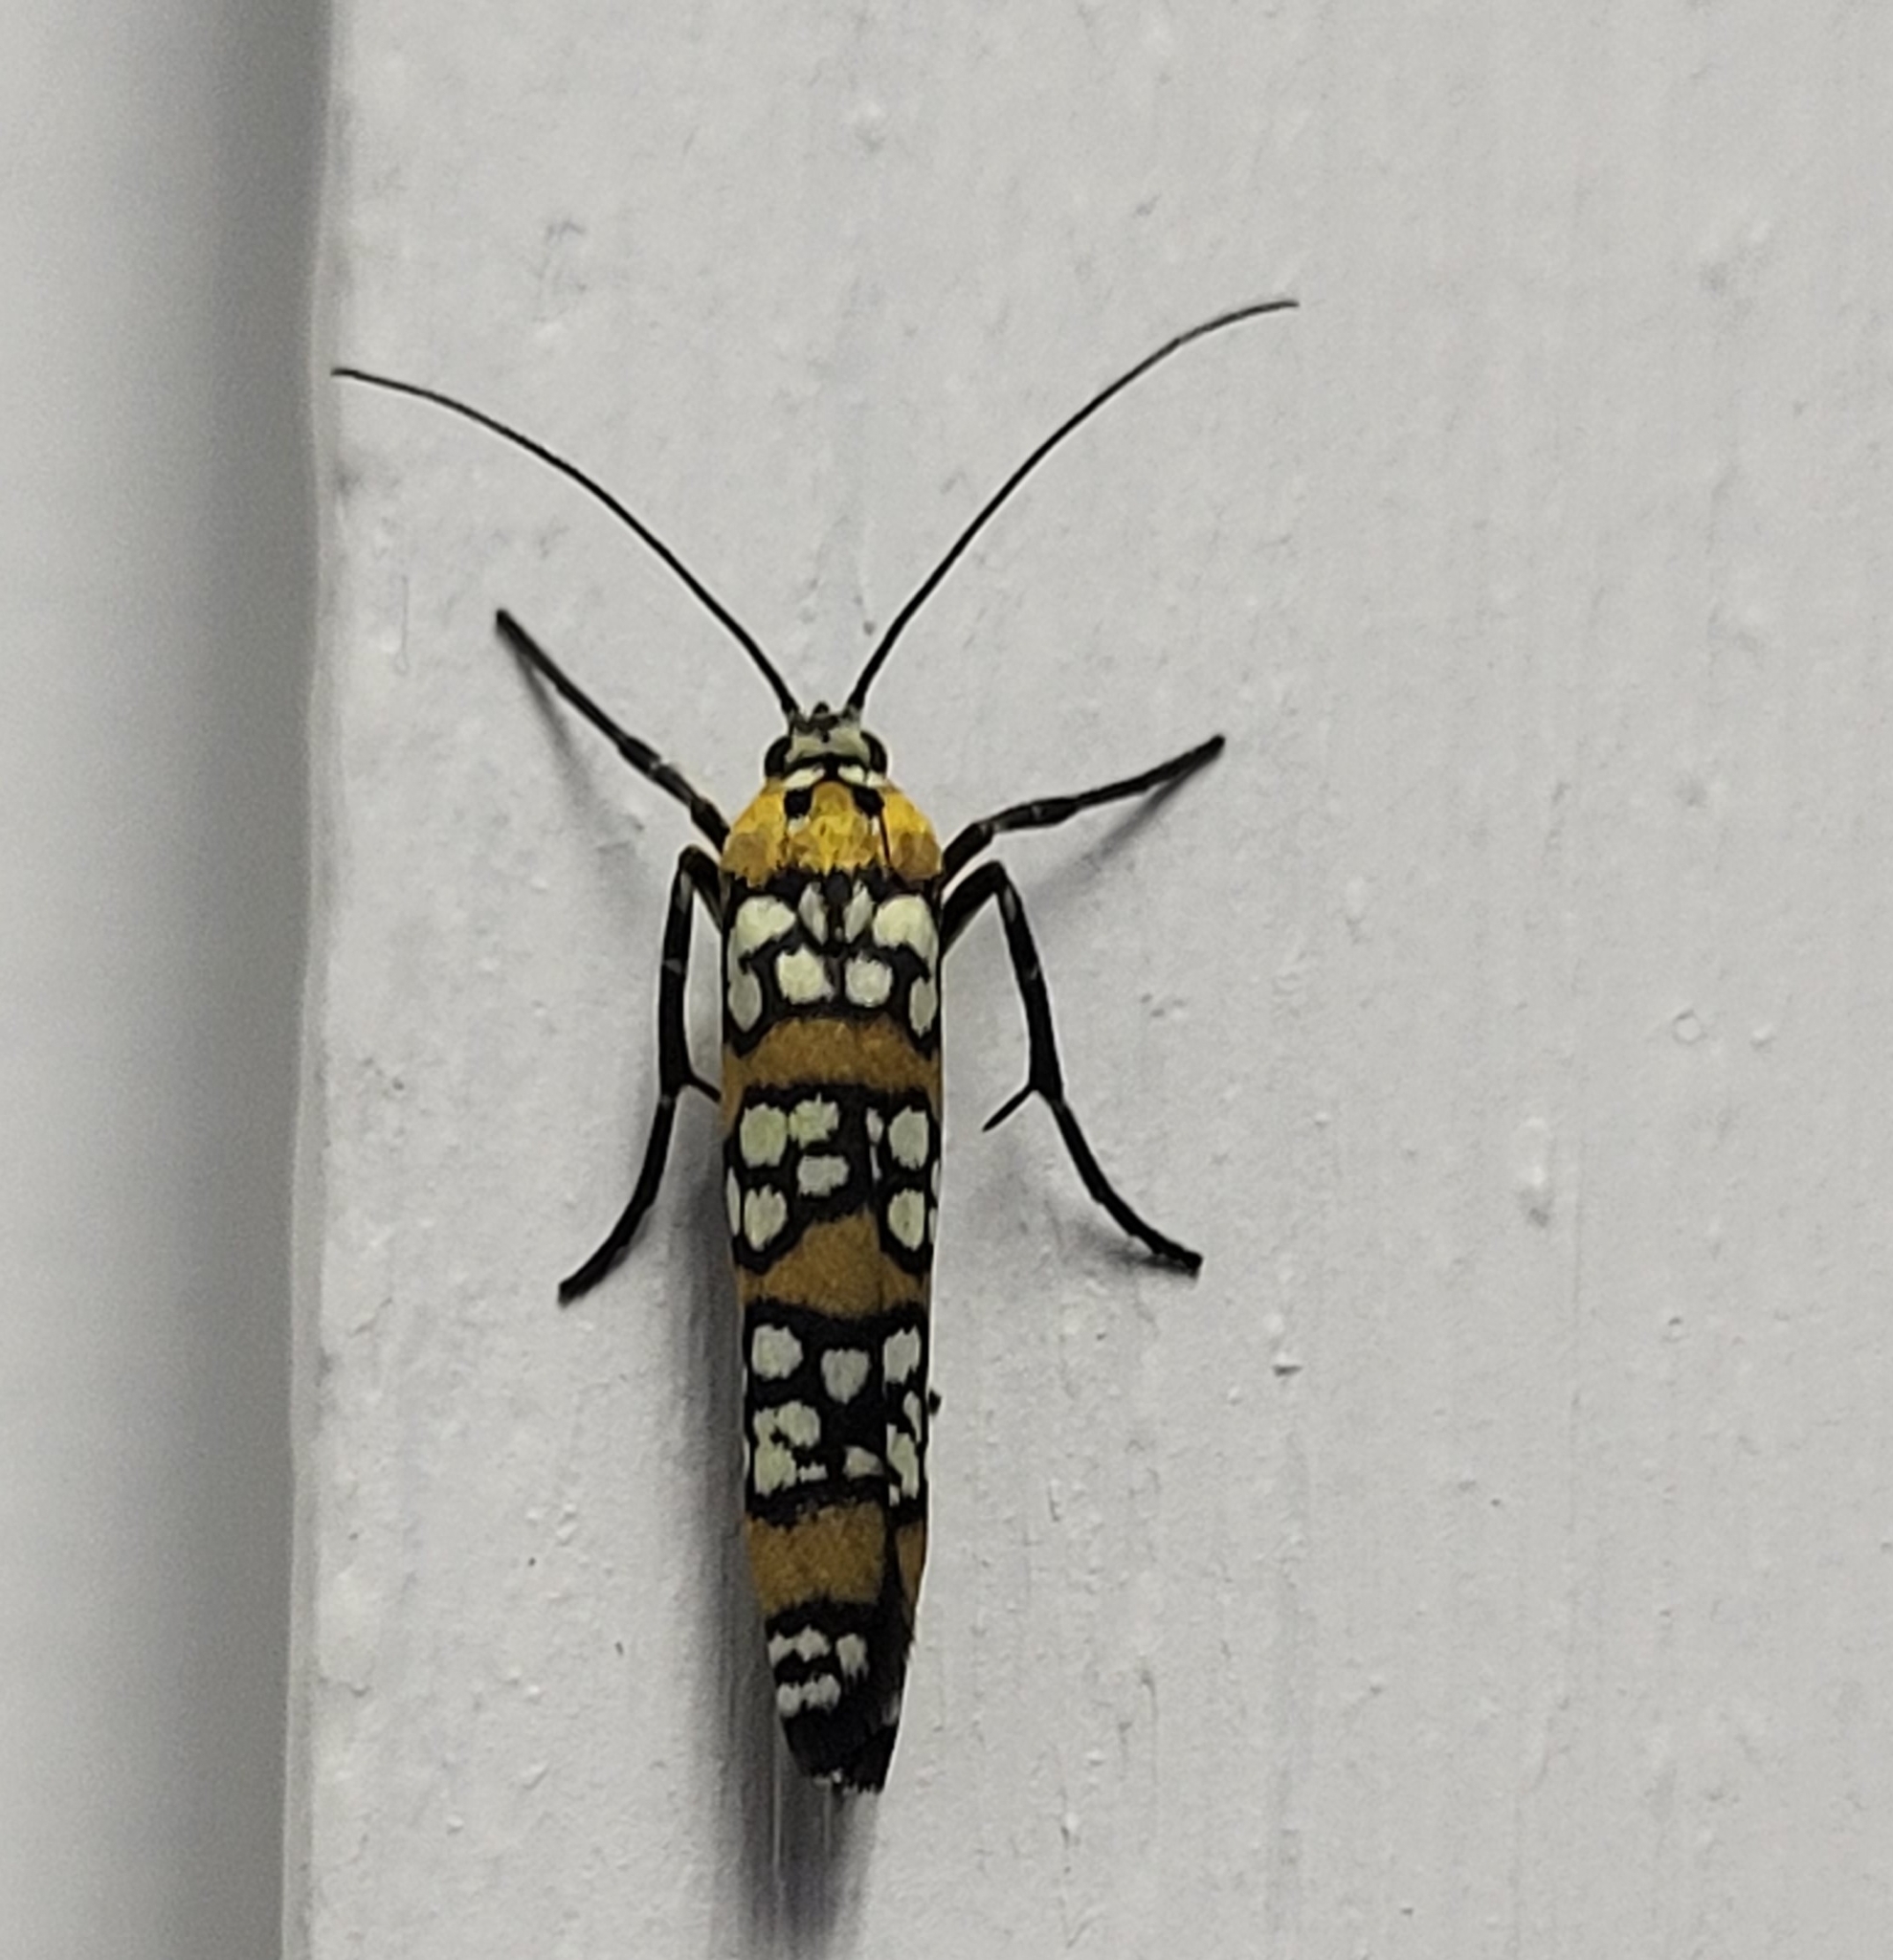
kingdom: Animalia
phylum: Arthropoda
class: Insecta
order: Lepidoptera
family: Attevidae
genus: Atteva
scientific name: Atteva punctella
